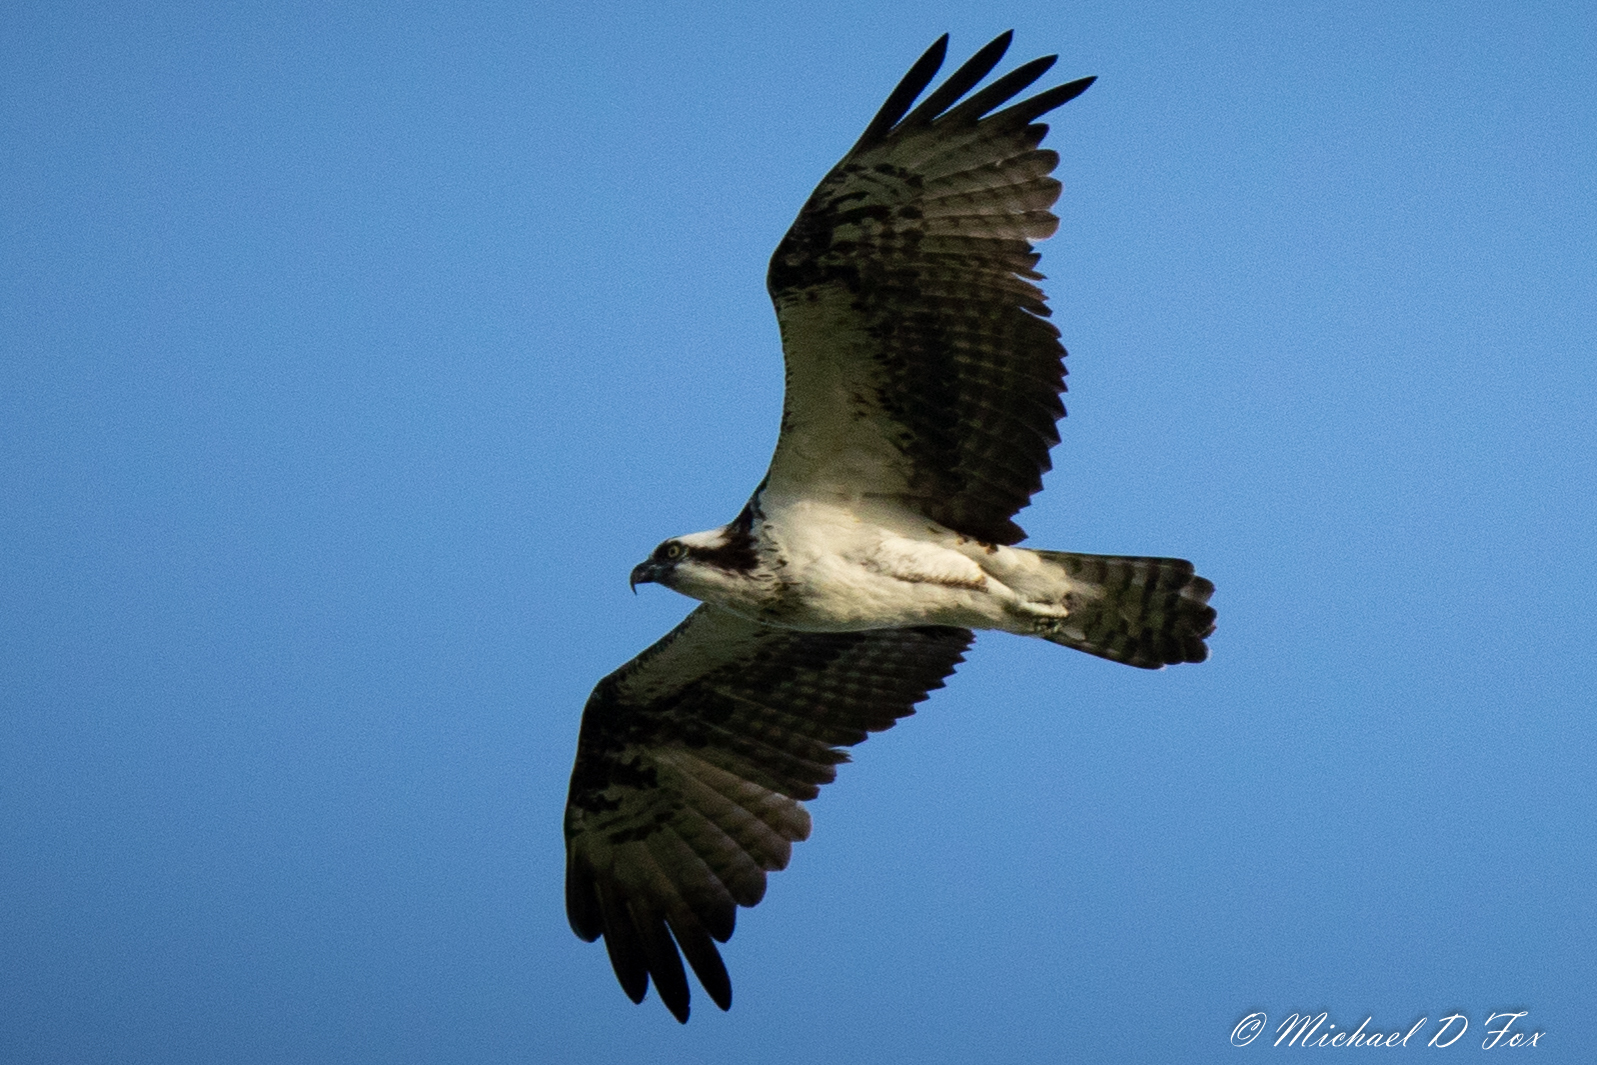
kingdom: Animalia
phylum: Chordata
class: Aves
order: Accipitriformes
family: Pandionidae
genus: Pandion
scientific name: Pandion haliaetus
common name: Osprey
